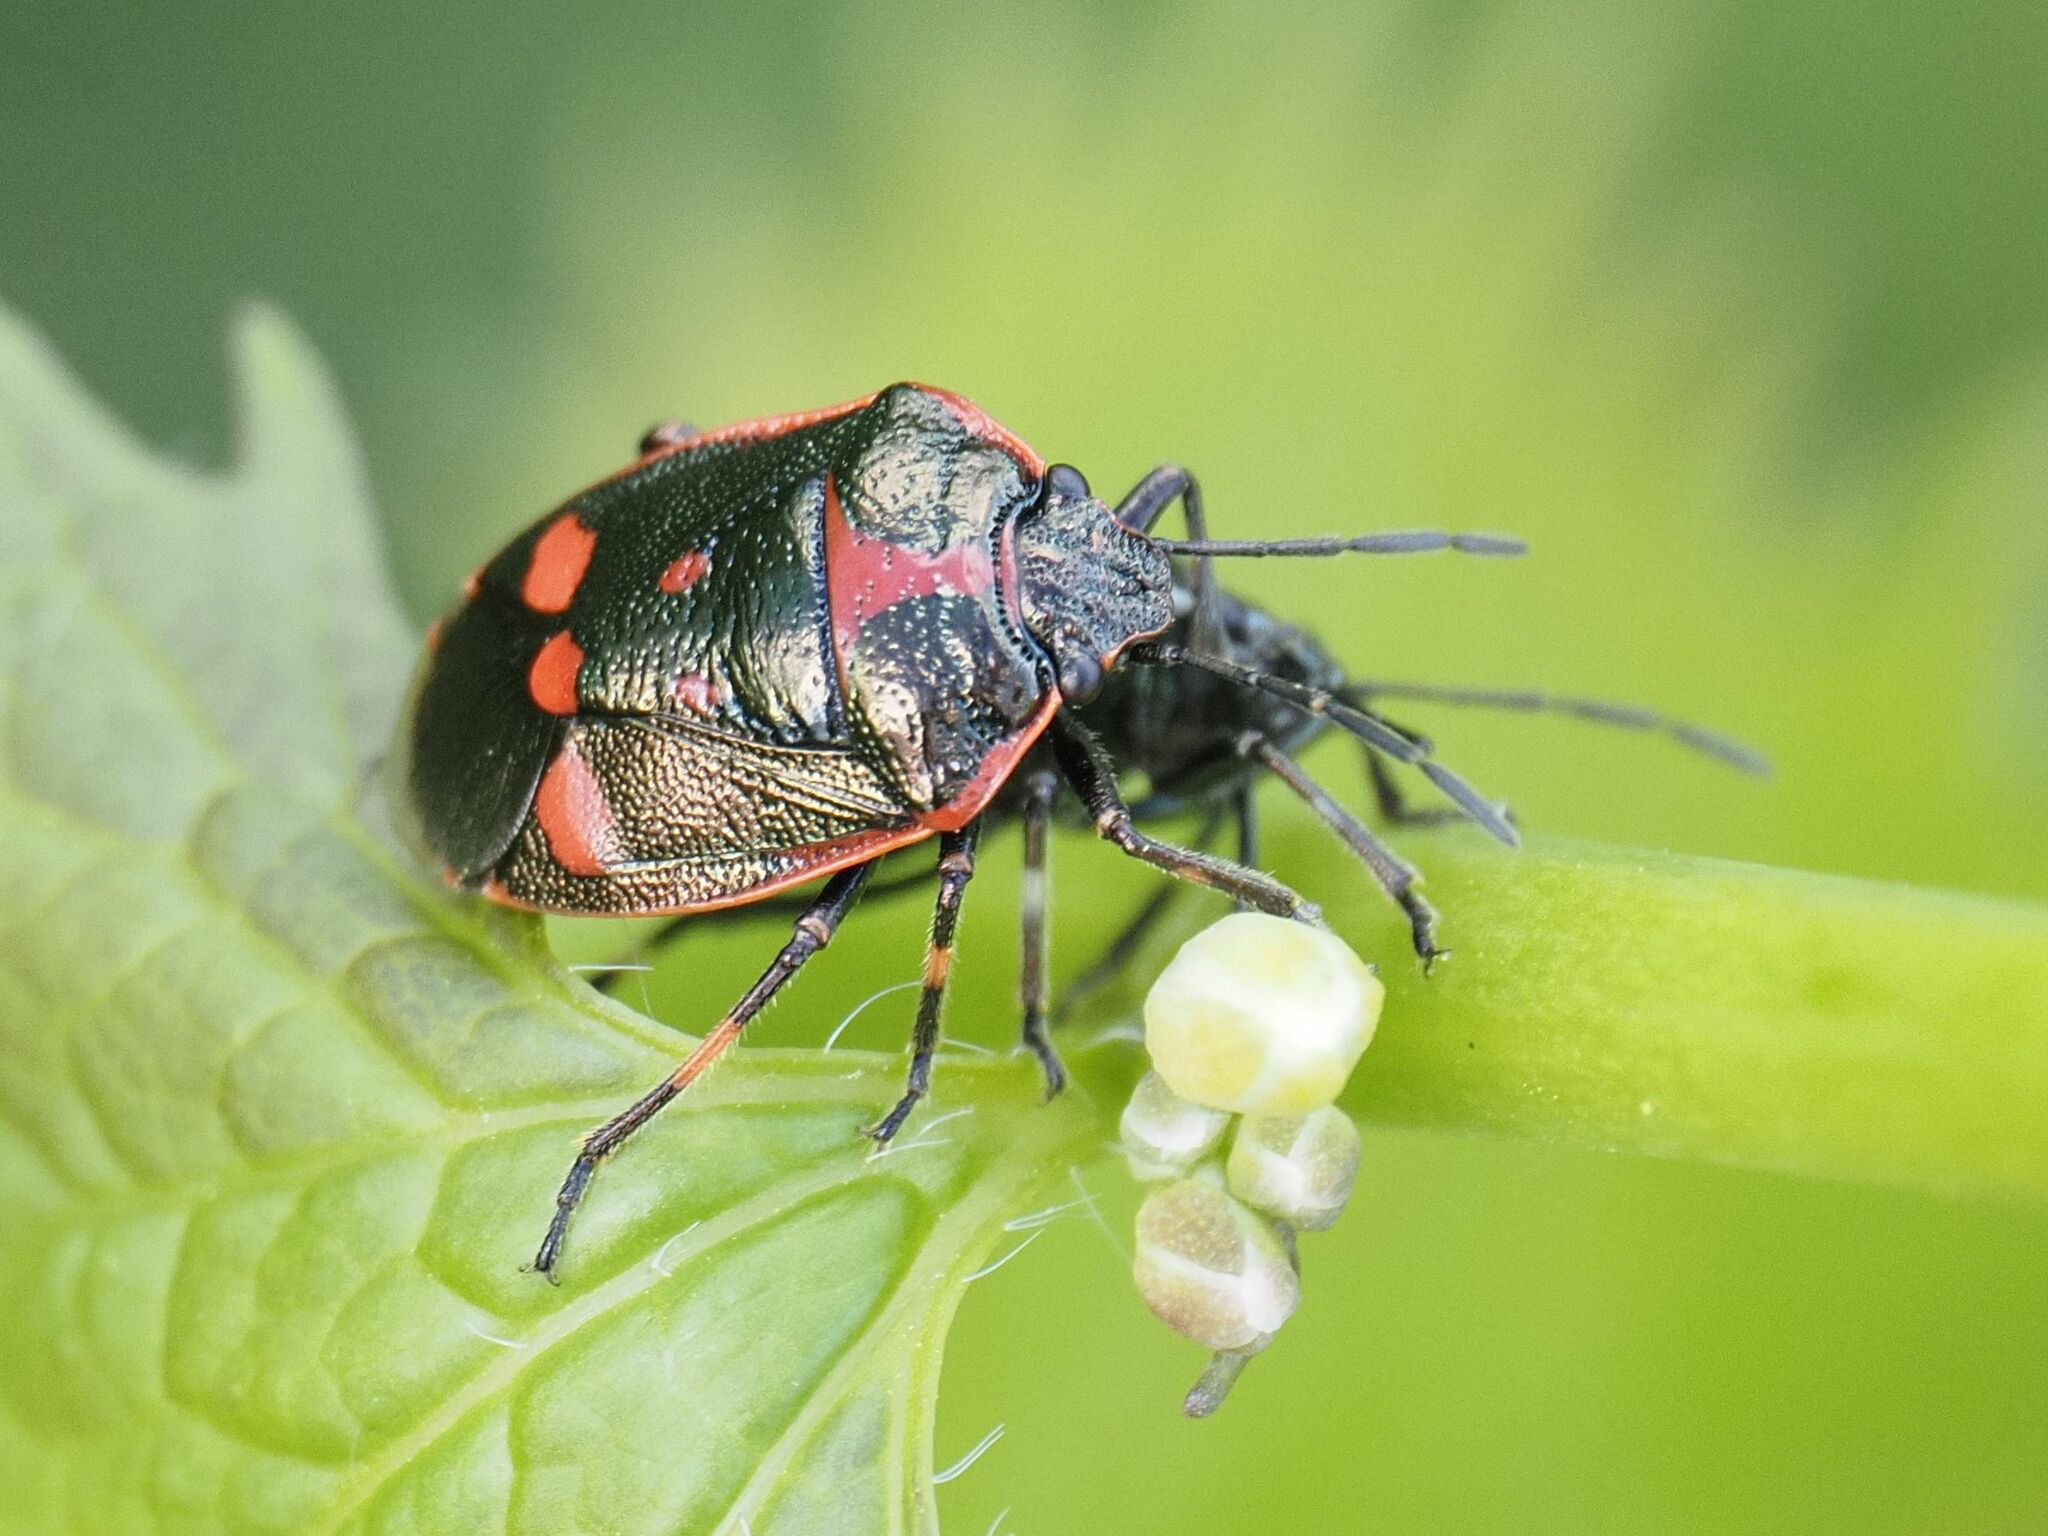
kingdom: Animalia
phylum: Arthropoda
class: Insecta
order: Hemiptera
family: Pentatomidae
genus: Eurydema
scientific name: Eurydema oleracea
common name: Cabbage bug
